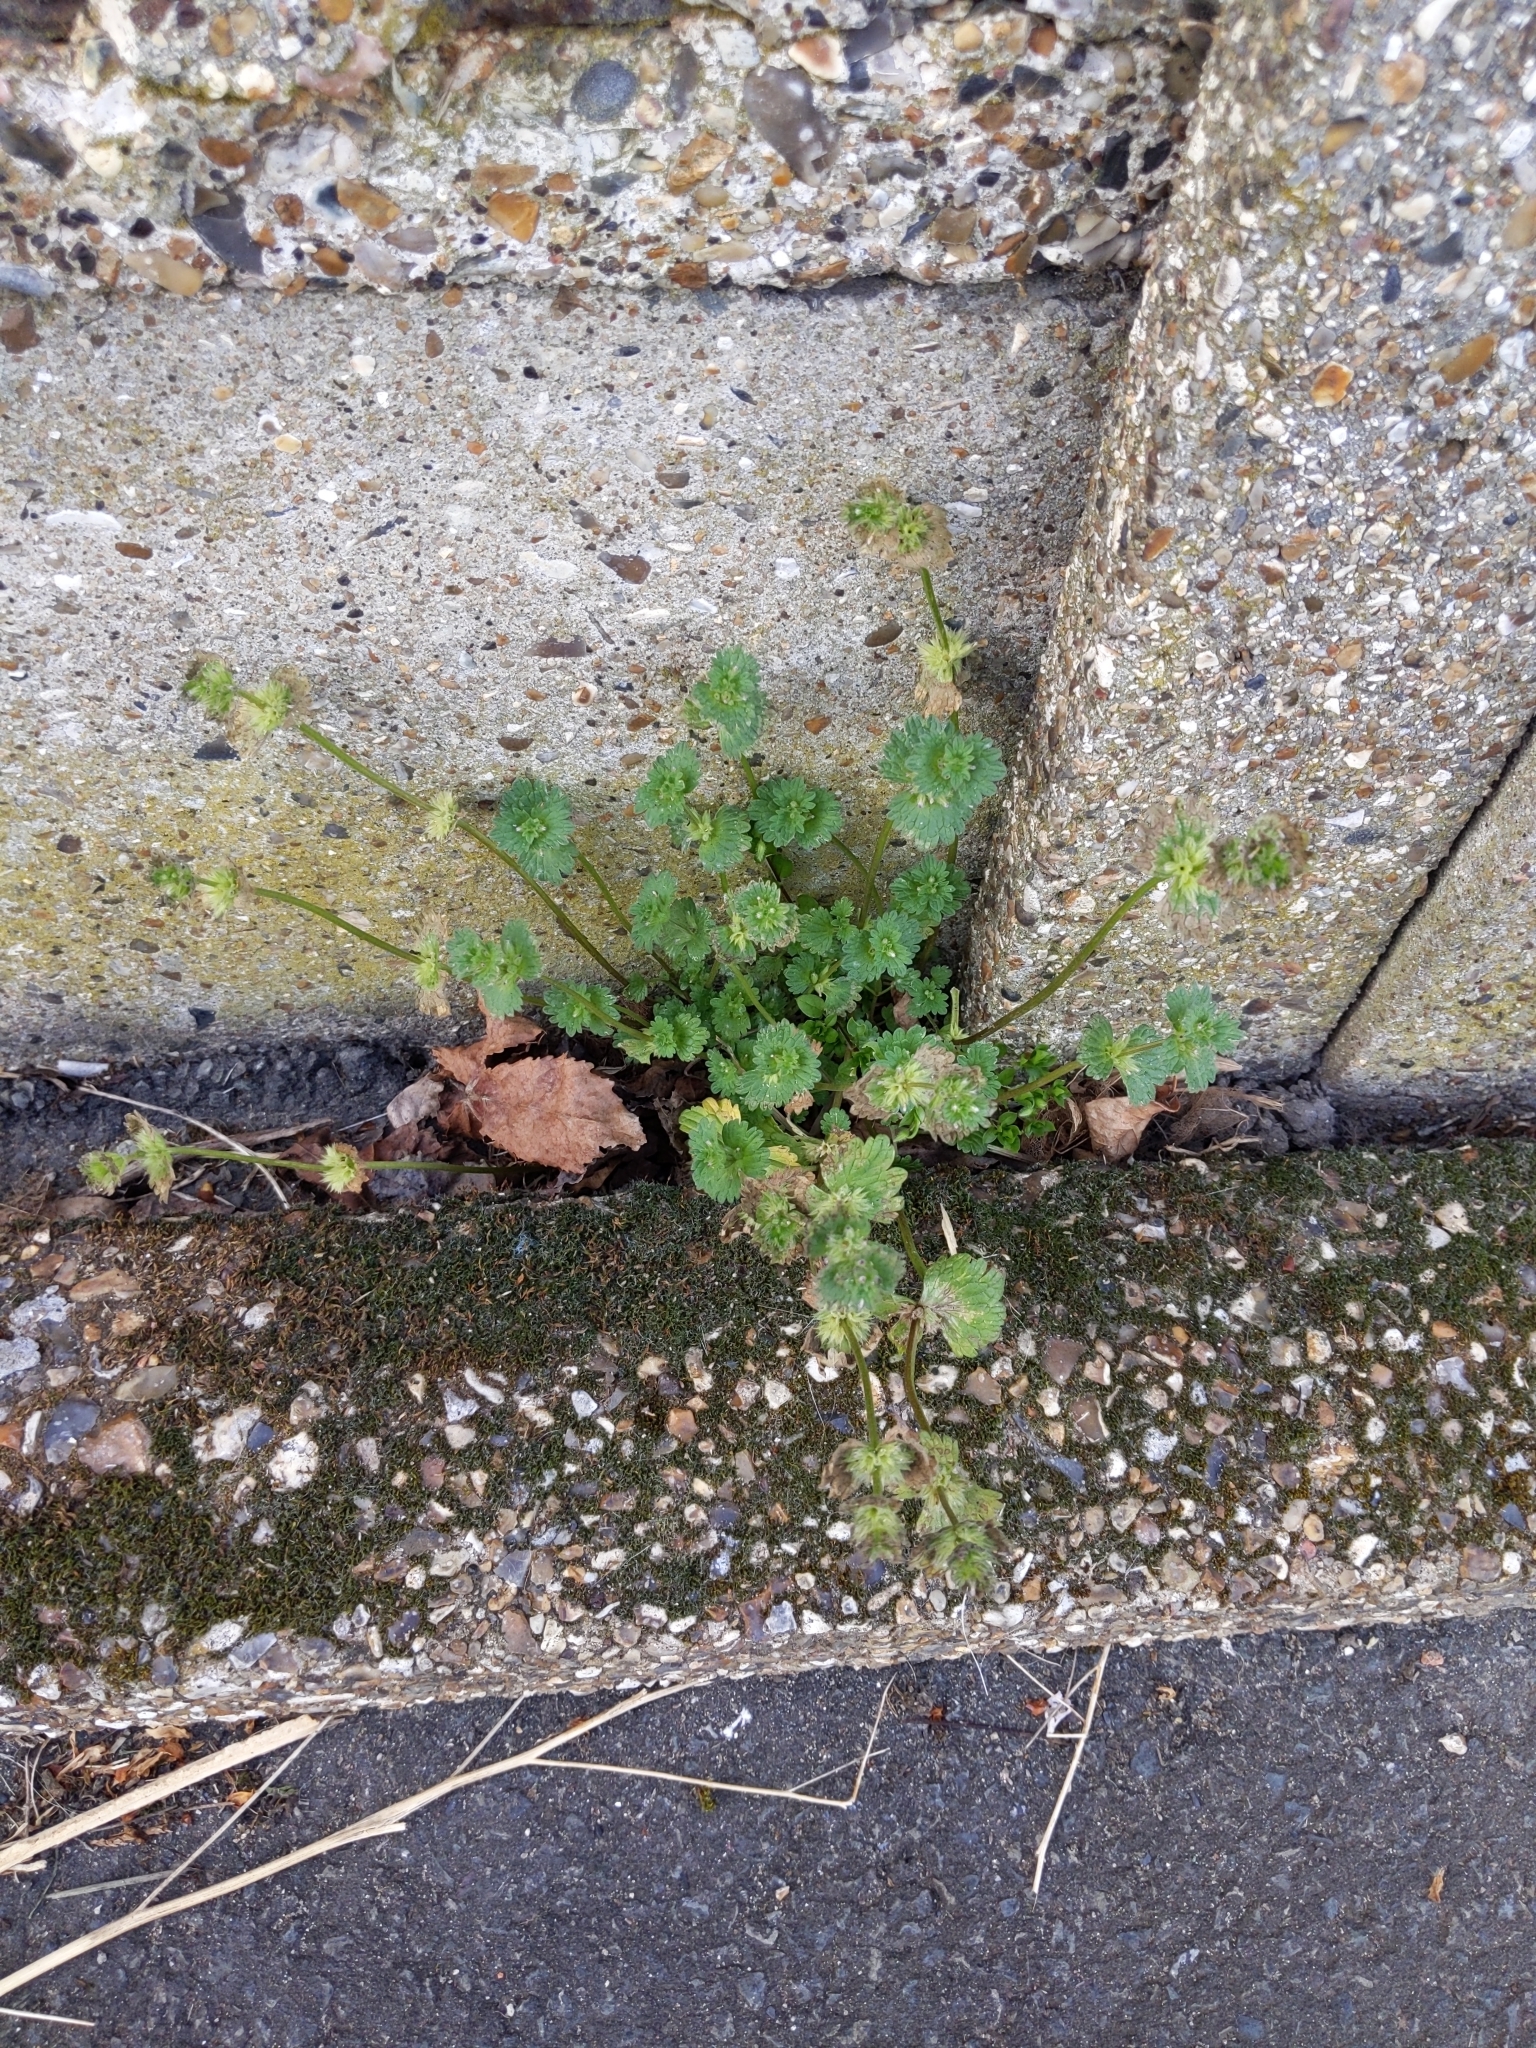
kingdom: Plantae
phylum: Tracheophyta
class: Magnoliopsida
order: Lamiales
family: Lamiaceae
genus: Lamium
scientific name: Lamium amplexicaule
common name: Henbit dead-nettle
